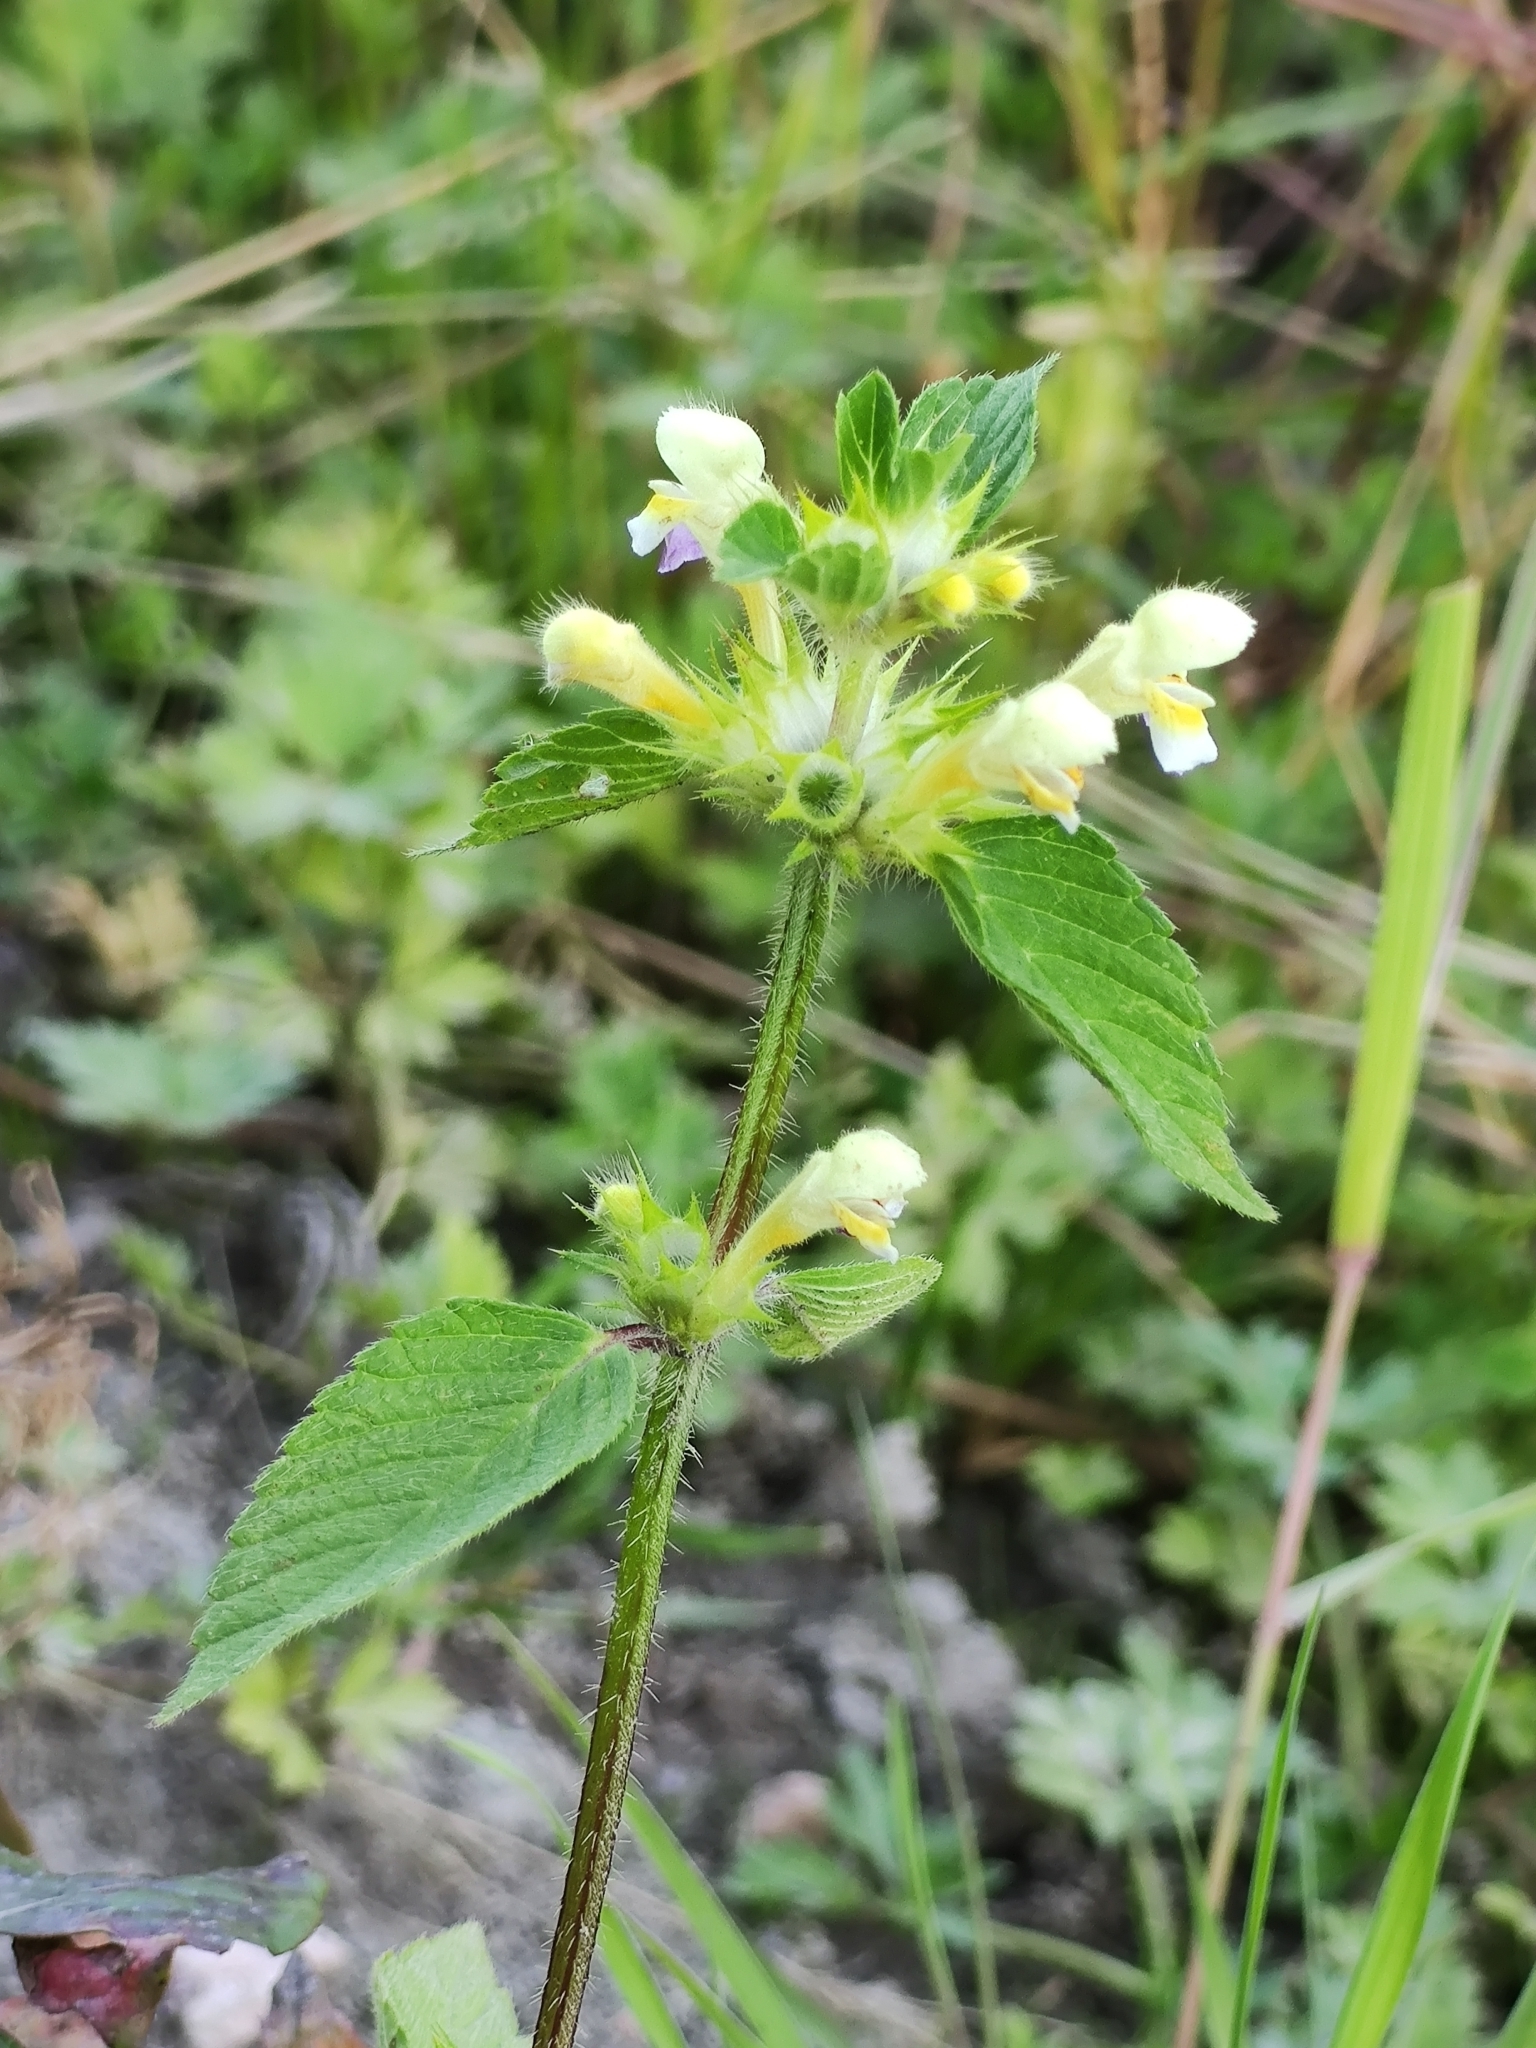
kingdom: Plantae
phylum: Tracheophyta
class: Magnoliopsida
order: Lamiales
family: Lamiaceae
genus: Galeopsis
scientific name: Galeopsis speciosa
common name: Large-flowered hemp-nettle
